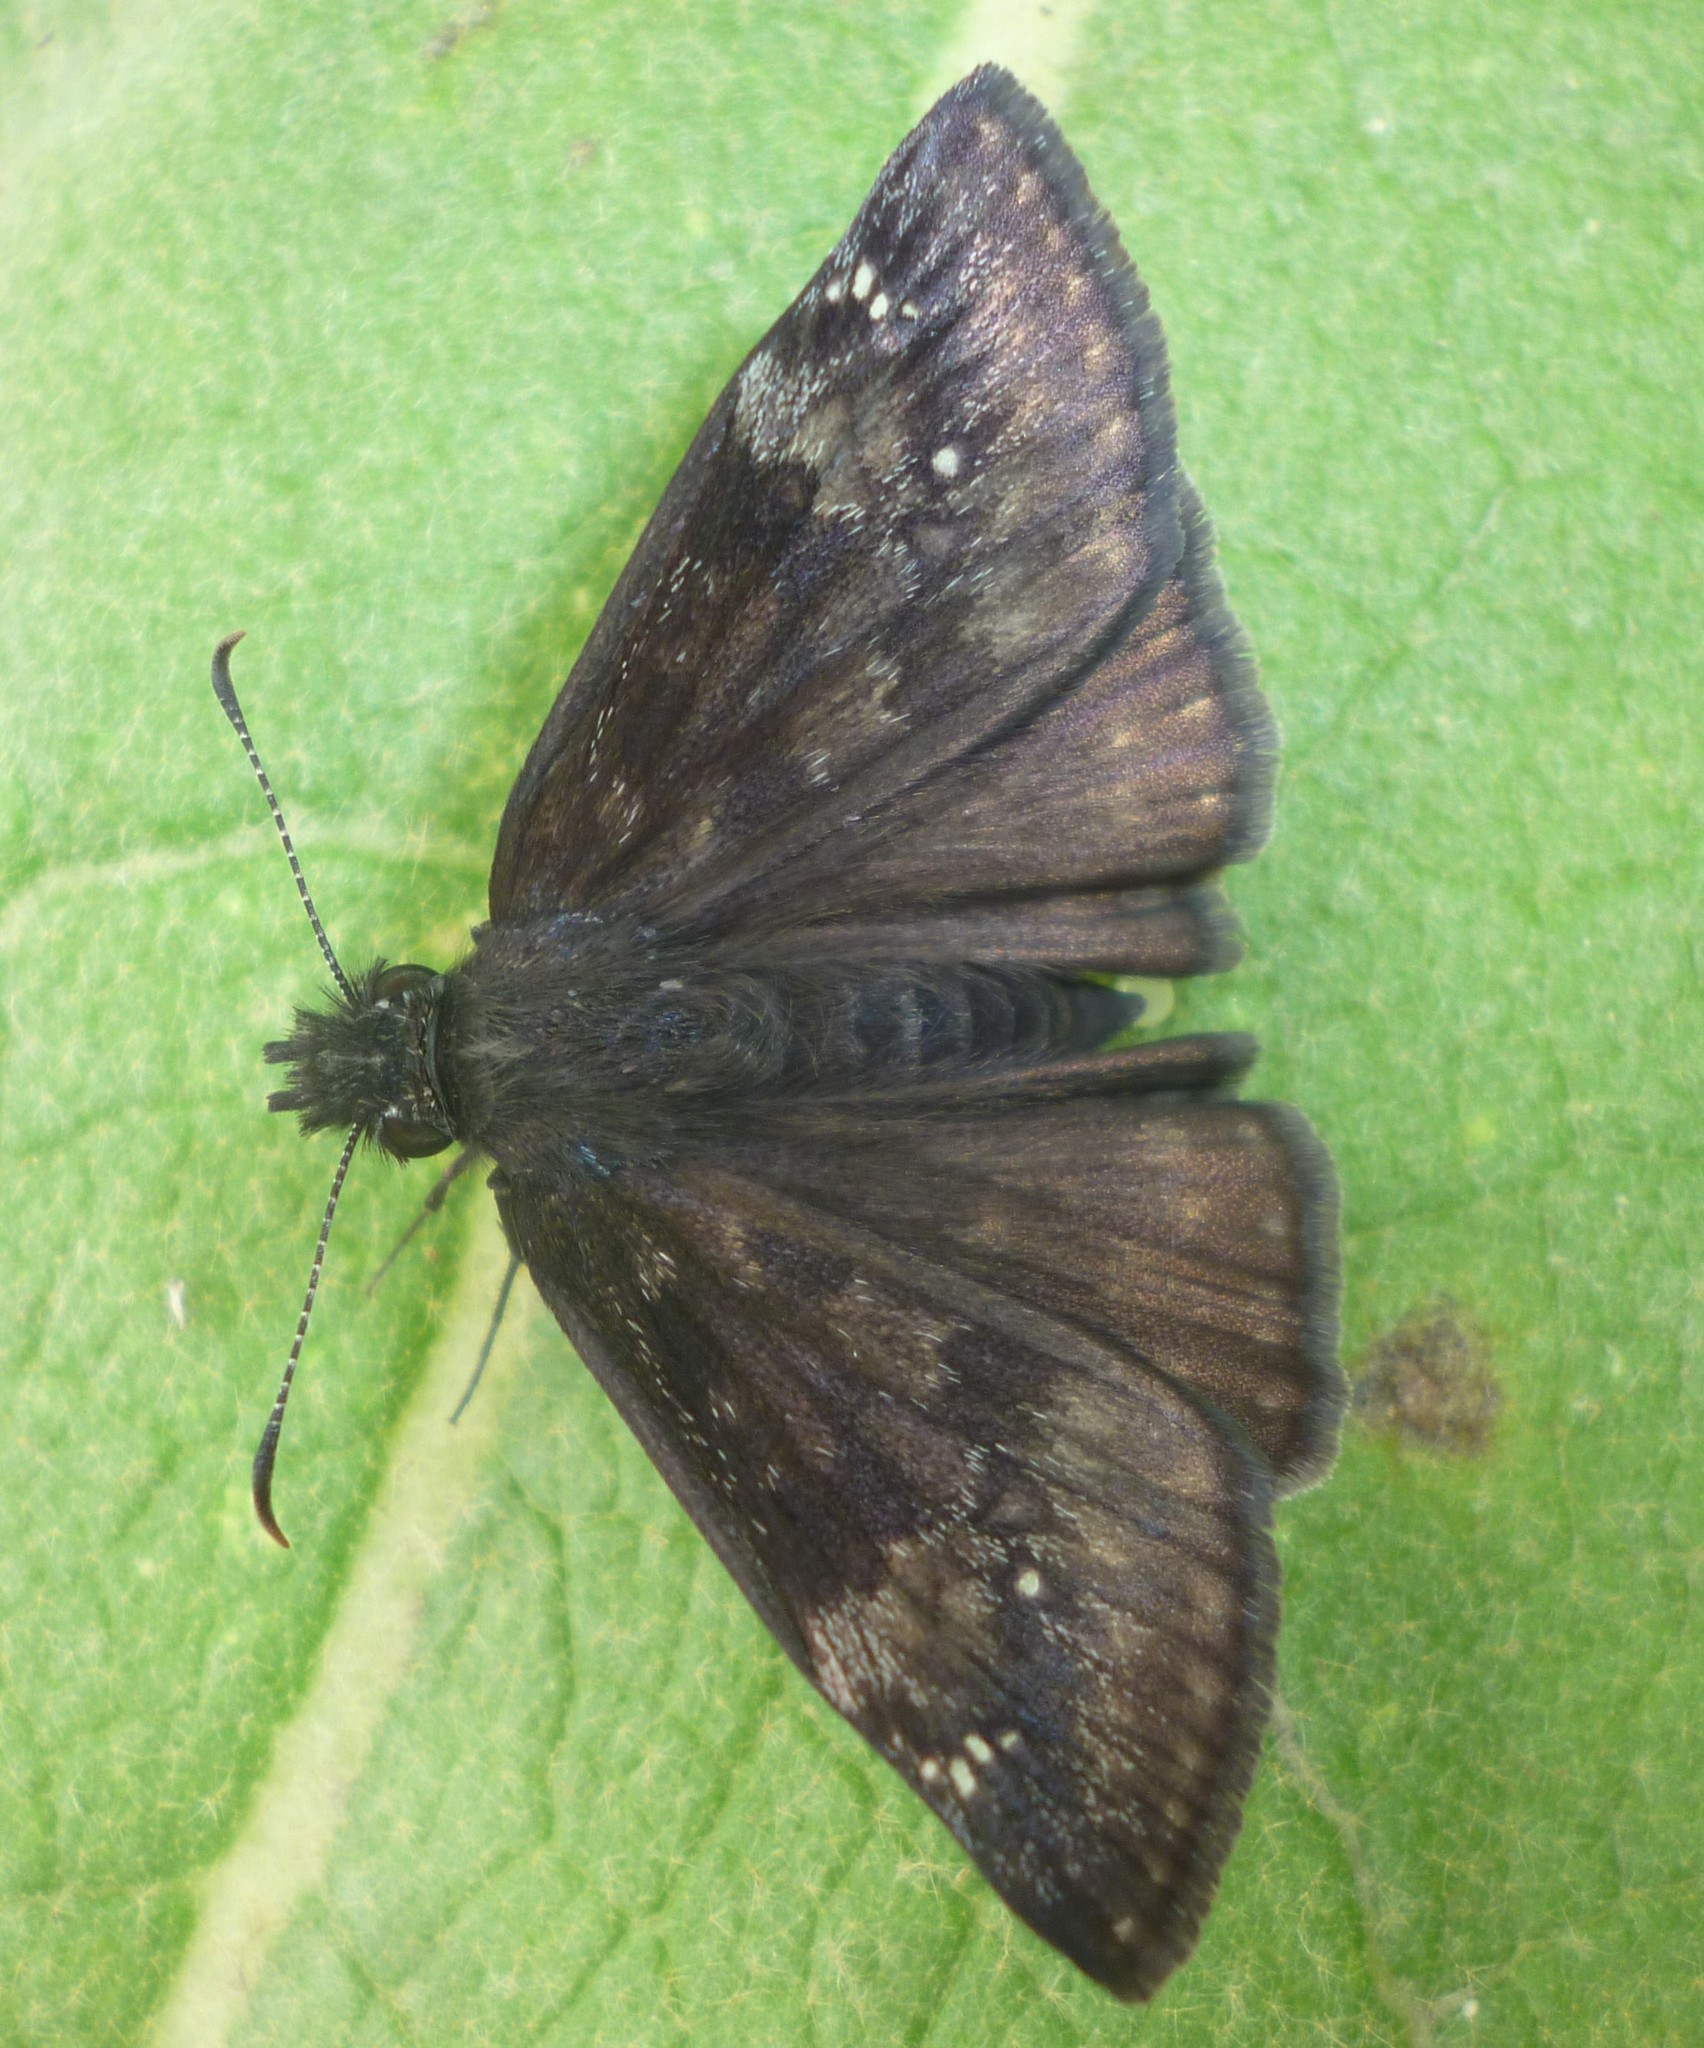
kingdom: Animalia
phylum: Arthropoda
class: Insecta
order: Lepidoptera
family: Hesperiidae
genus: Erynnis
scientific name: Erynnis baptisiae
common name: Wild indigo duskywing
